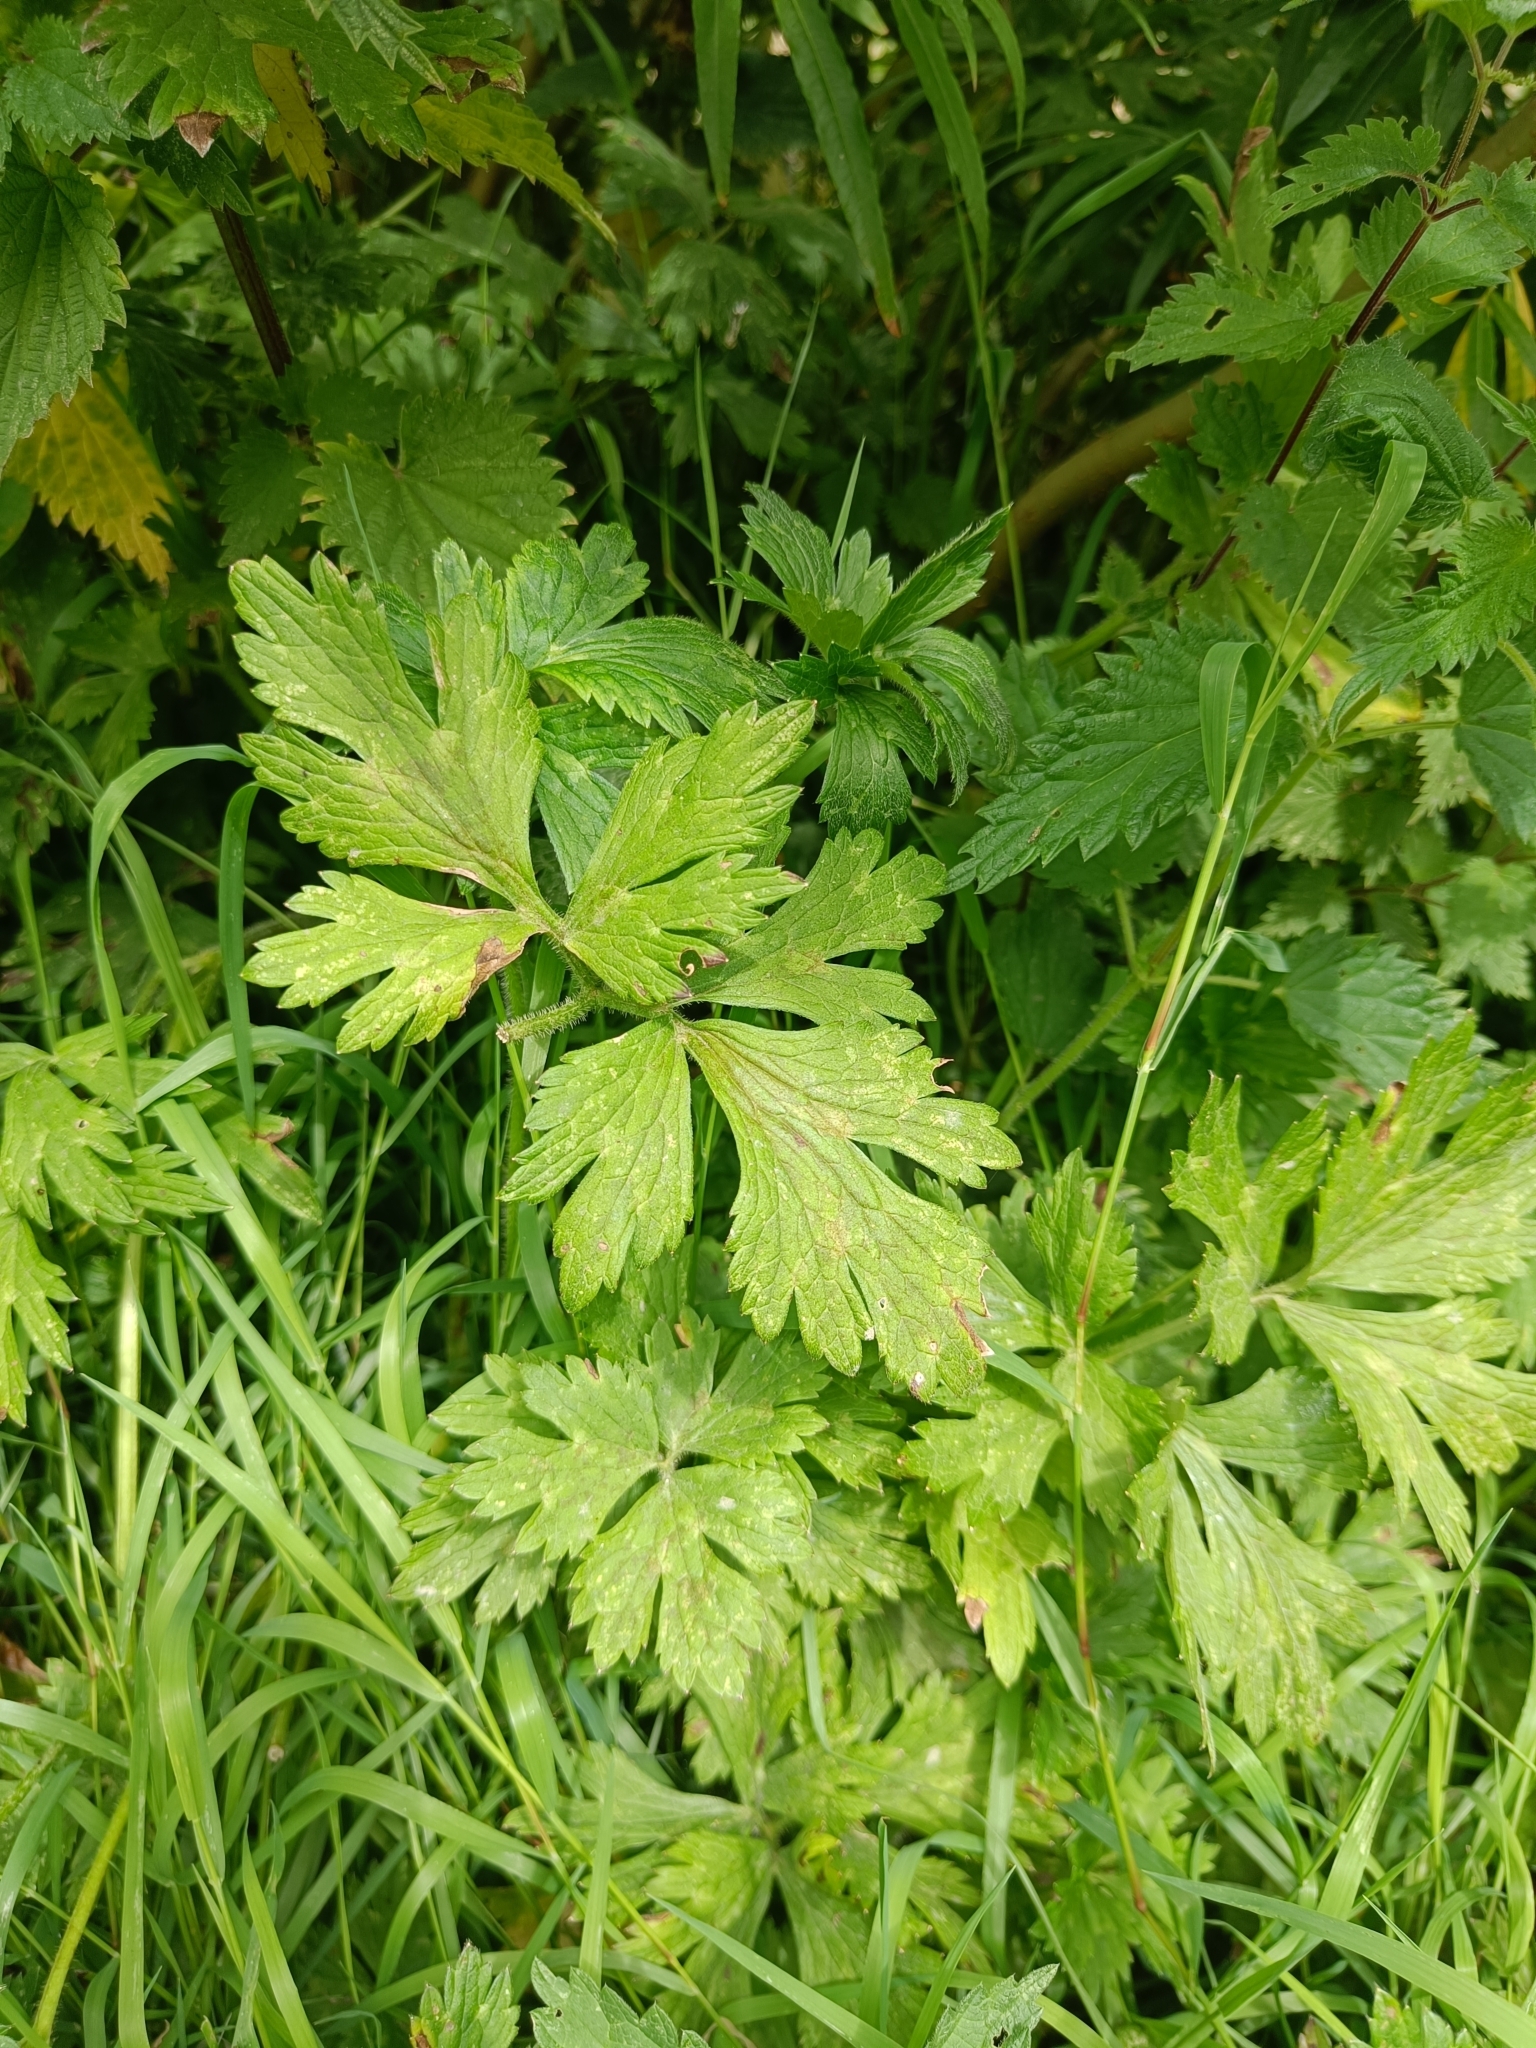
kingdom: Plantae
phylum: Tracheophyta
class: Magnoliopsida
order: Ranunculales
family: Ranunculaceae
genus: Ranunculus
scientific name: Ranunculus repens
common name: Creeping buttercup
